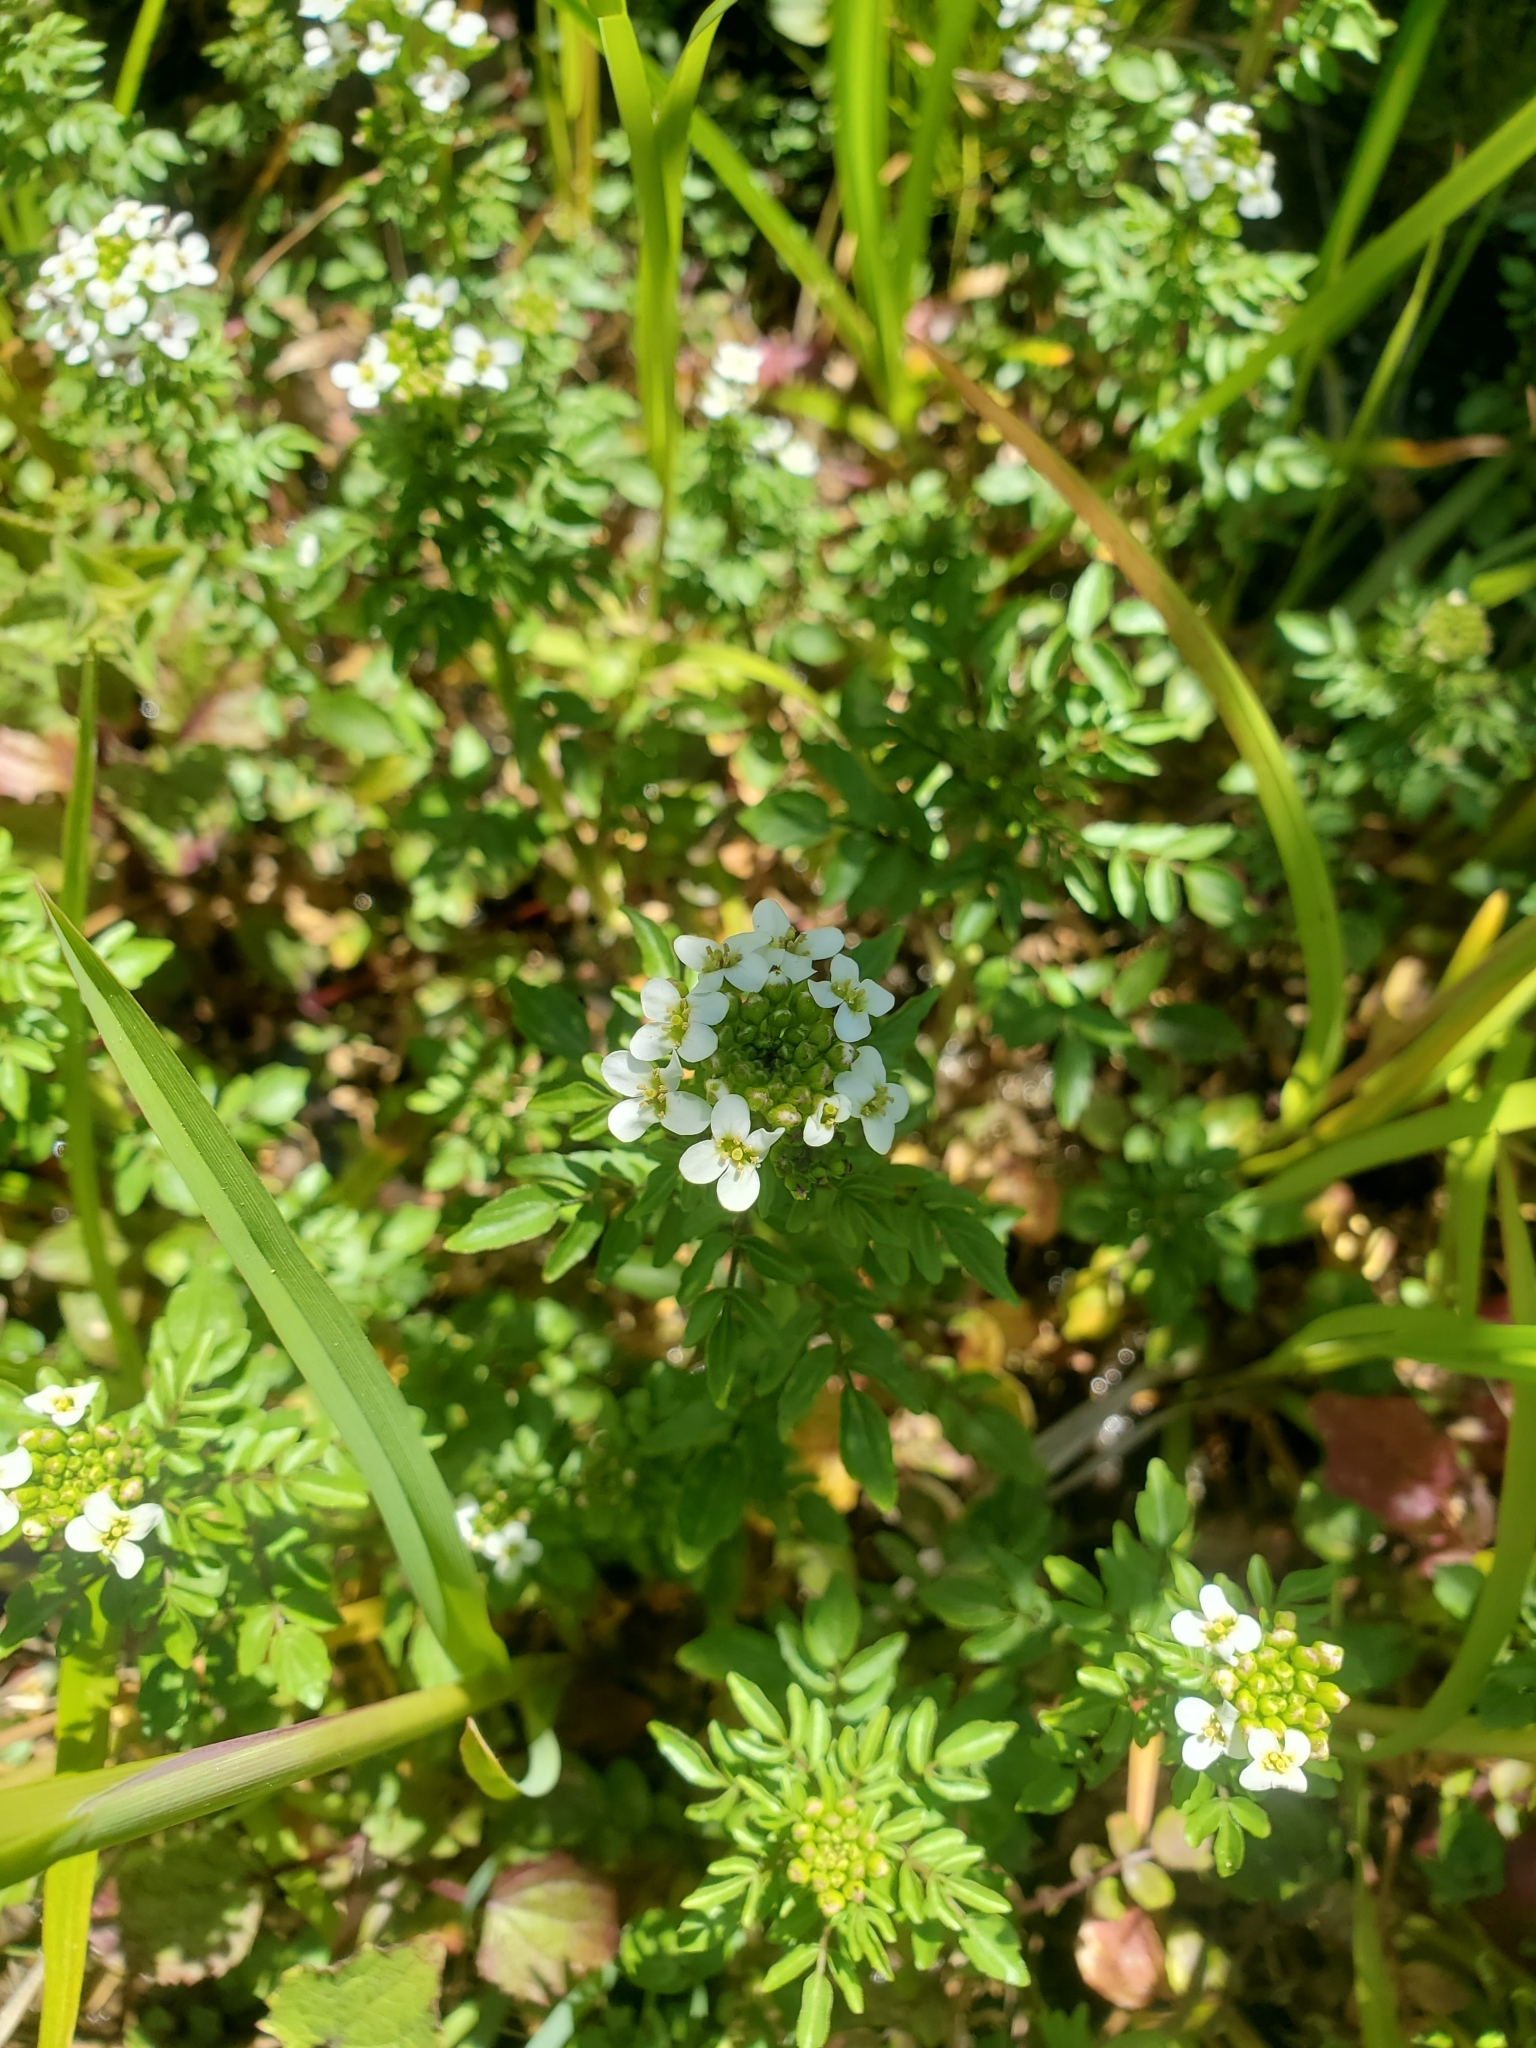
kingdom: Plantae
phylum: Tracheophyta
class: Magnoliopsida
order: Brassicales
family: Brassicaceae
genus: Nasturtium
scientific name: Nasturtium officinale
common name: Watercress
